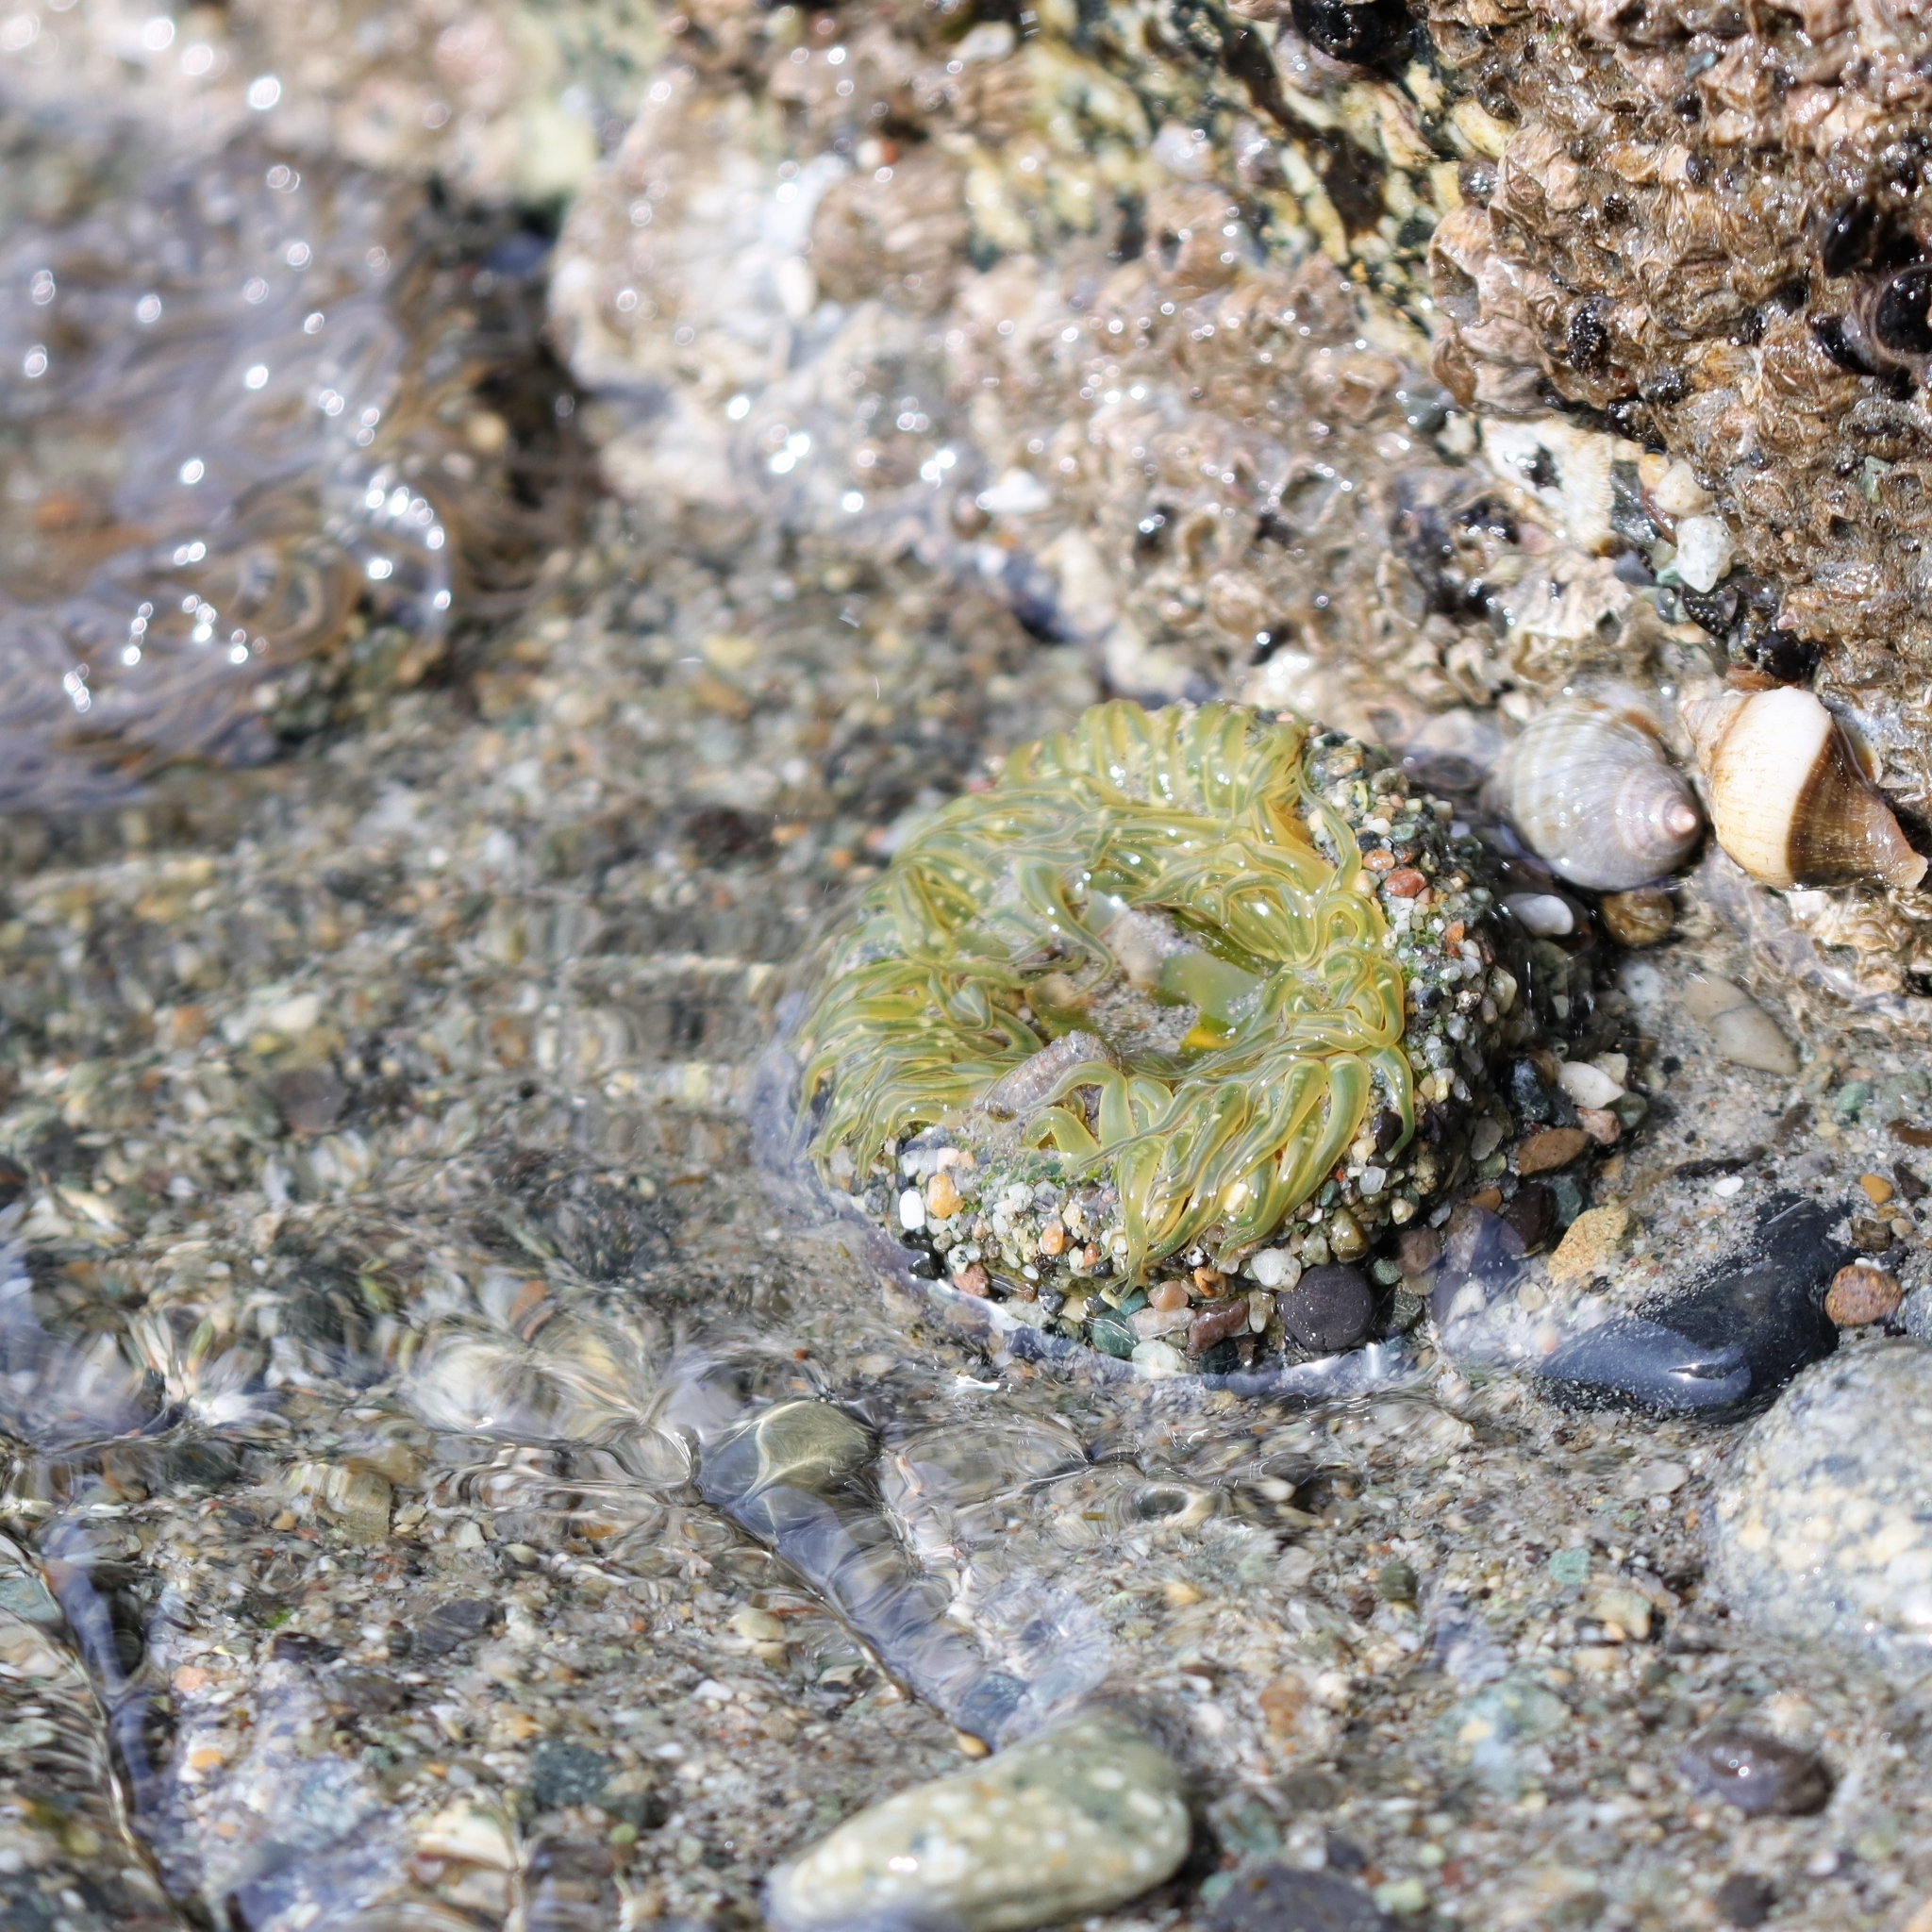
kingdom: Animalia
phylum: Cnidaria
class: Anthozoa
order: Actiniaria
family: Actiniidae
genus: Anthopleura
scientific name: Anthopleura artemisia
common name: Buried sea anemone
